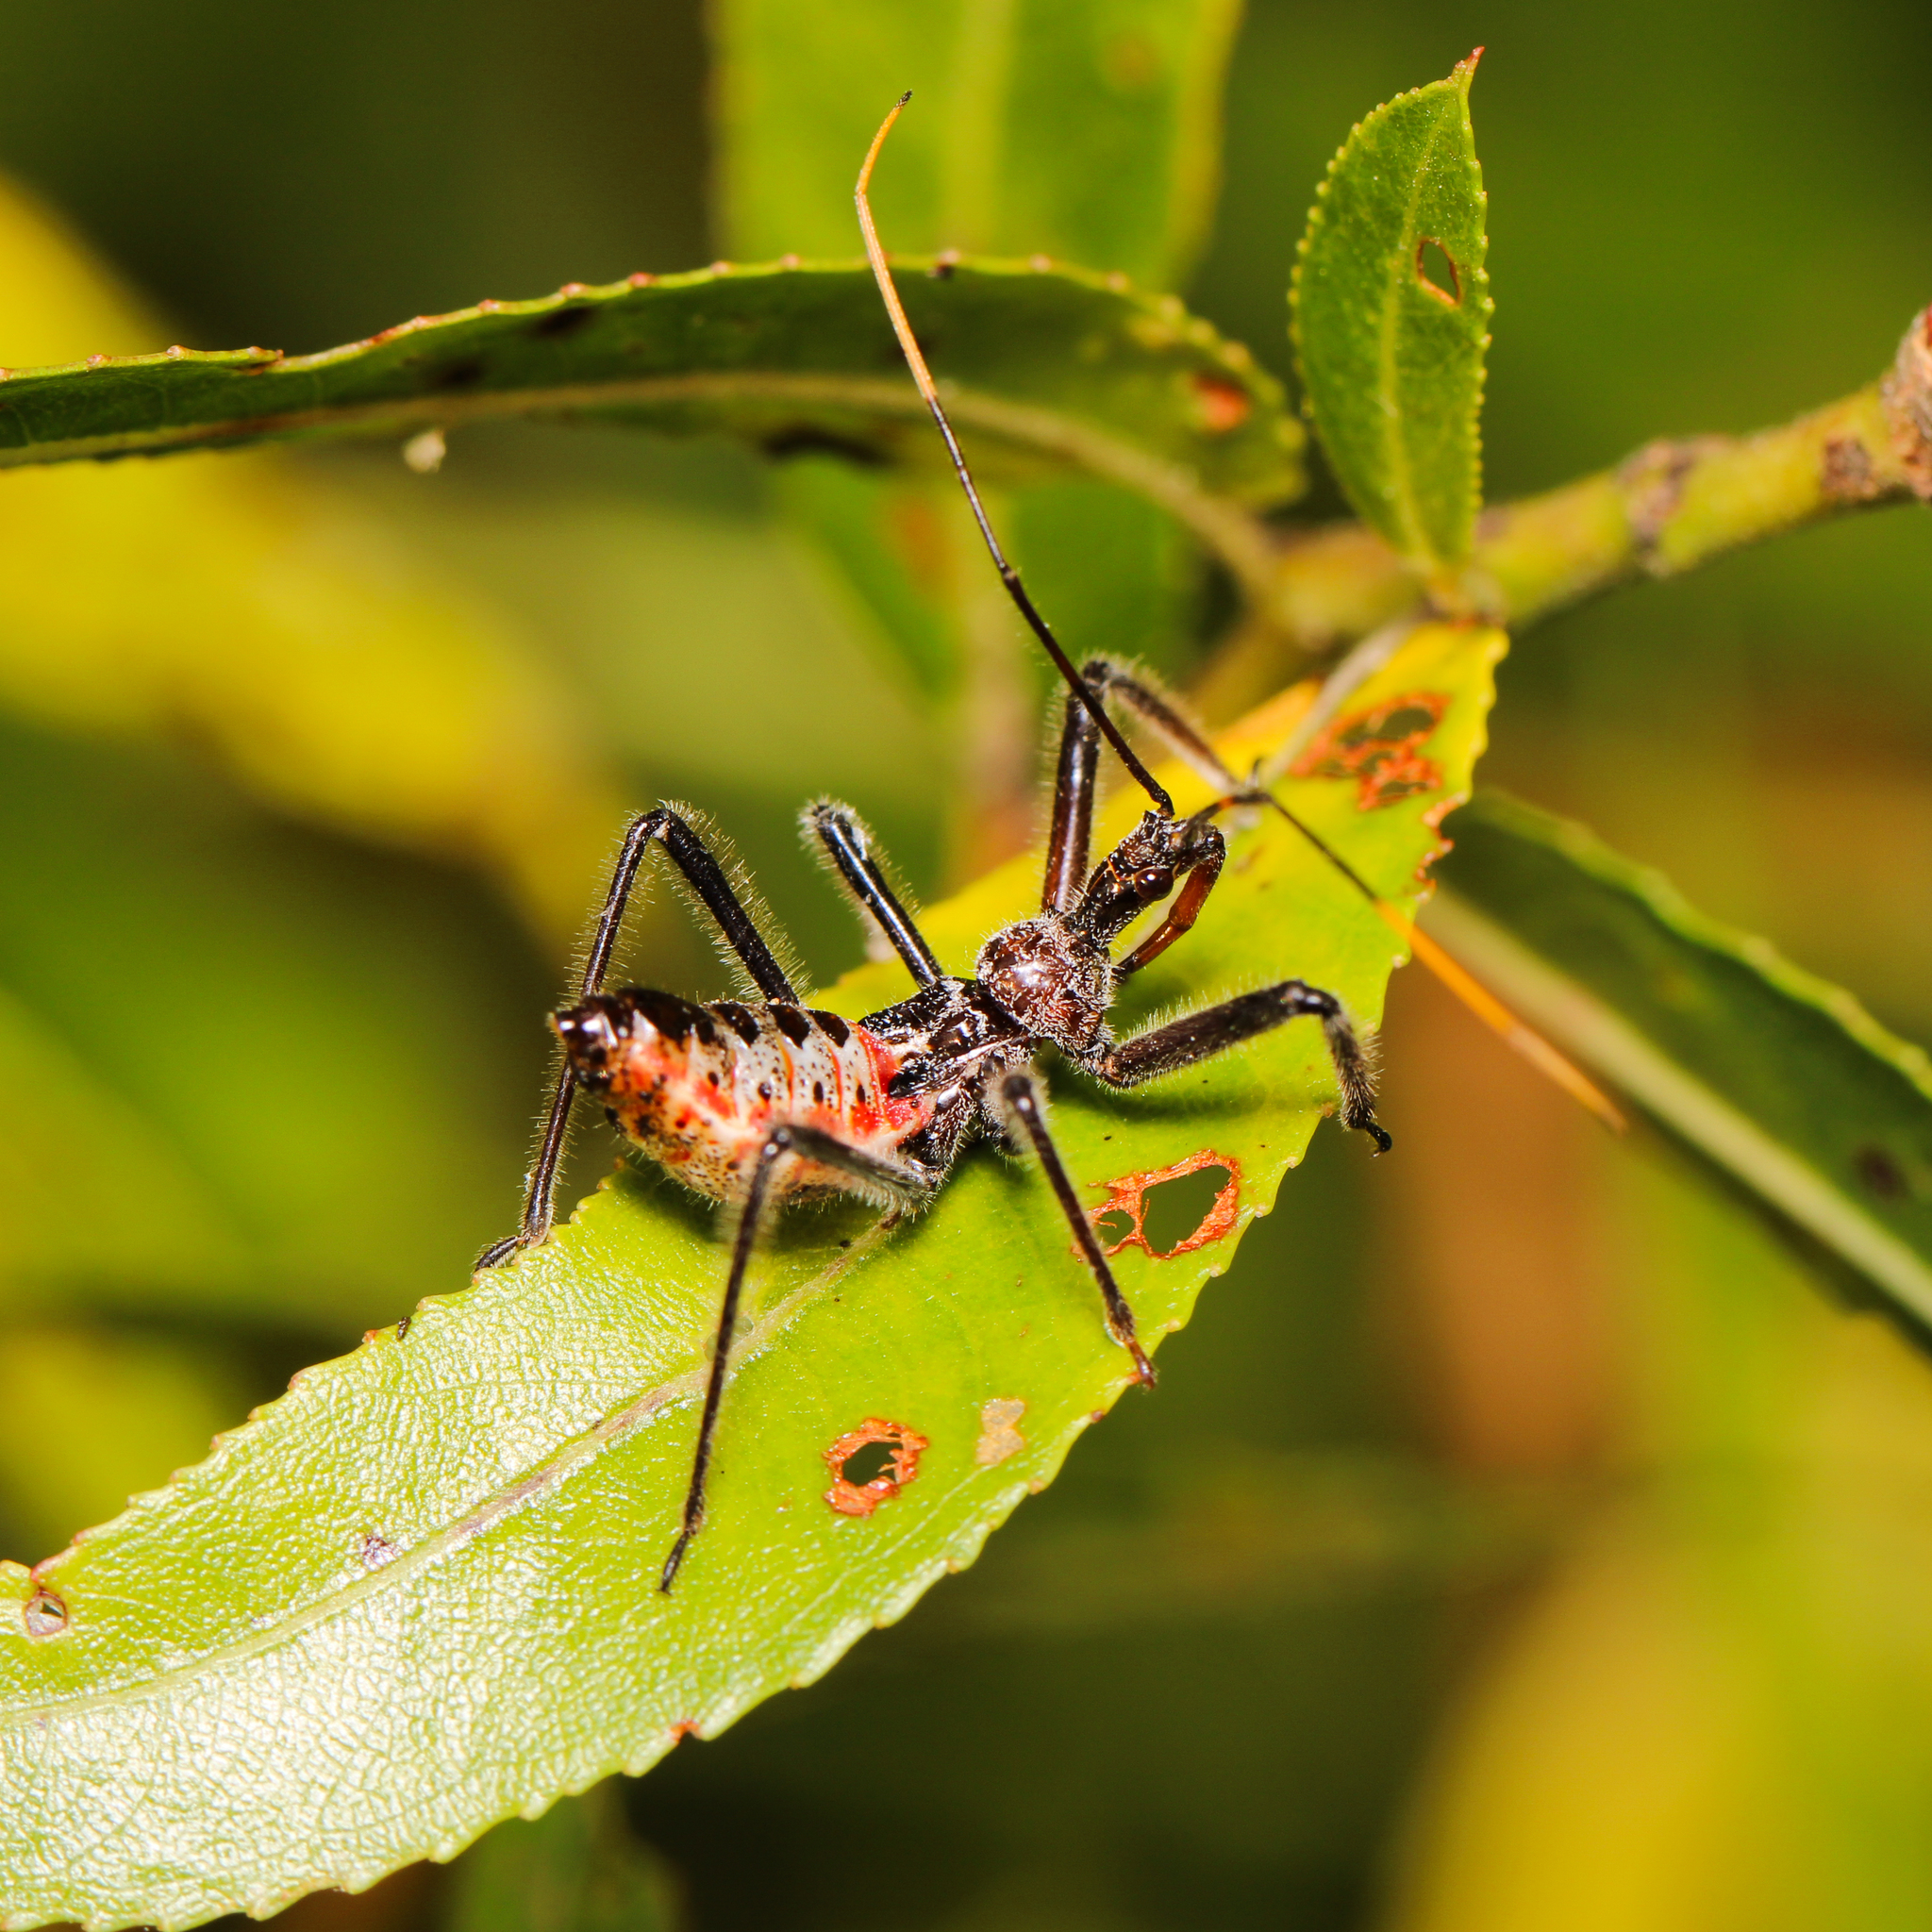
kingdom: Animalia
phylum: Arthropoda
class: Insecta
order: Hemiptera
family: Reduviidae
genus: Arilus
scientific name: Arilus cristatus
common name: North american wheel bug
